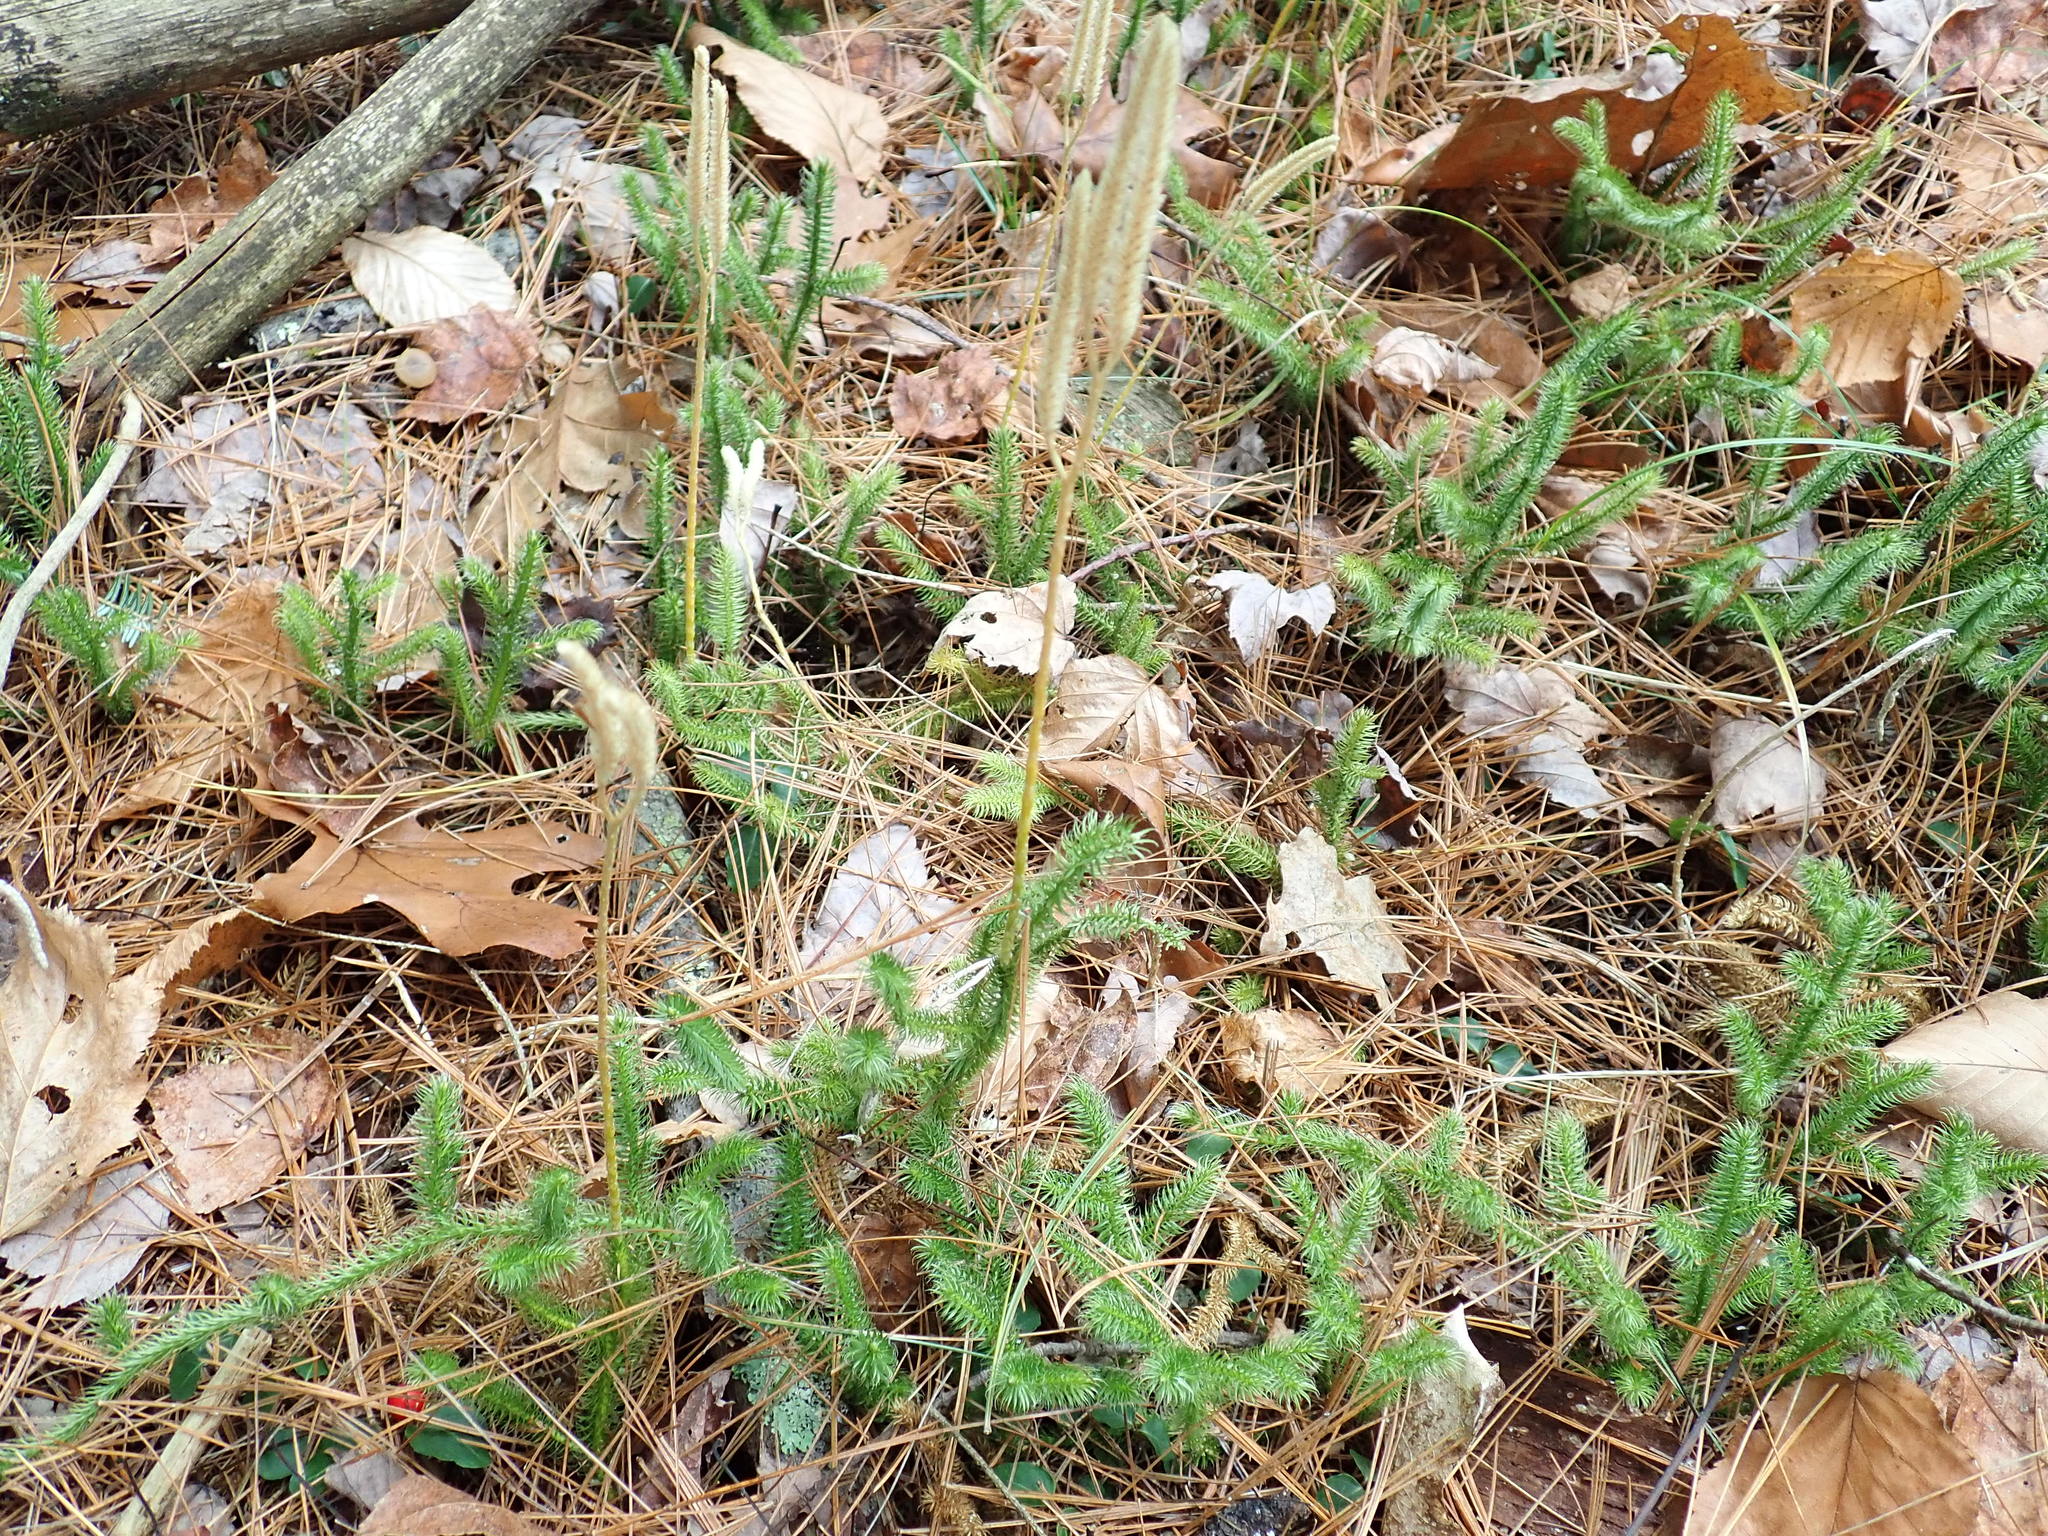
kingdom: Plantae
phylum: Tracheophyta
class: Lycopodiopsida
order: Lycopodiales
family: Lycopodiaceae
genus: Lycopodium
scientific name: Lycopodium clavatum
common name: Stag's-horn clubmoss
